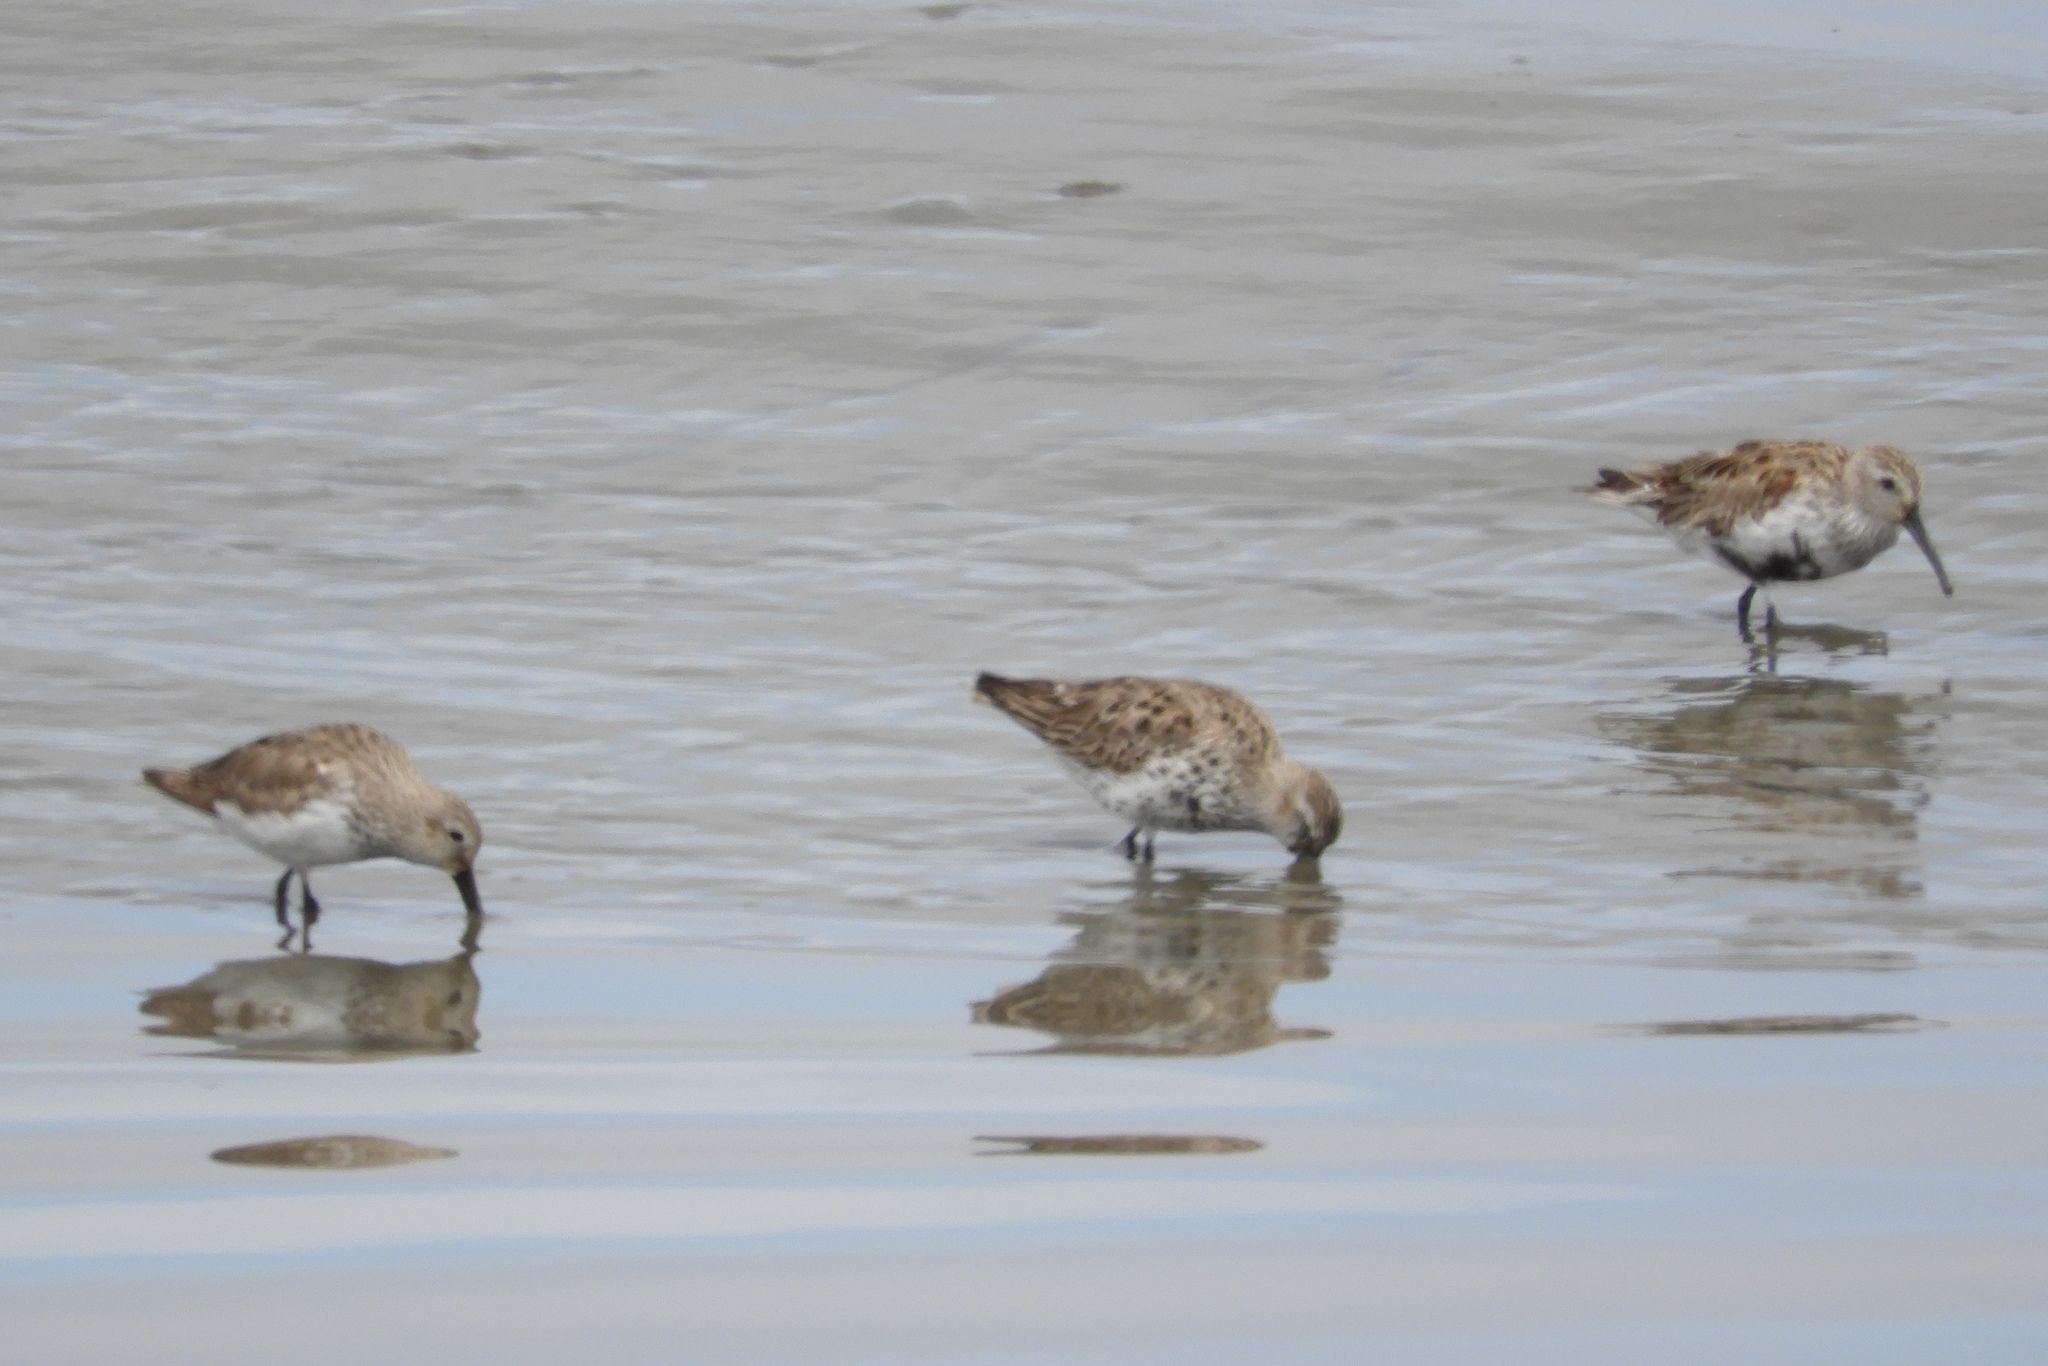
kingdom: Animalia
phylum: Chordata
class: Aves
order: Charadriiformes
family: Scolopacidae
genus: Calidris
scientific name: Calidris alpina
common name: Dunlin
